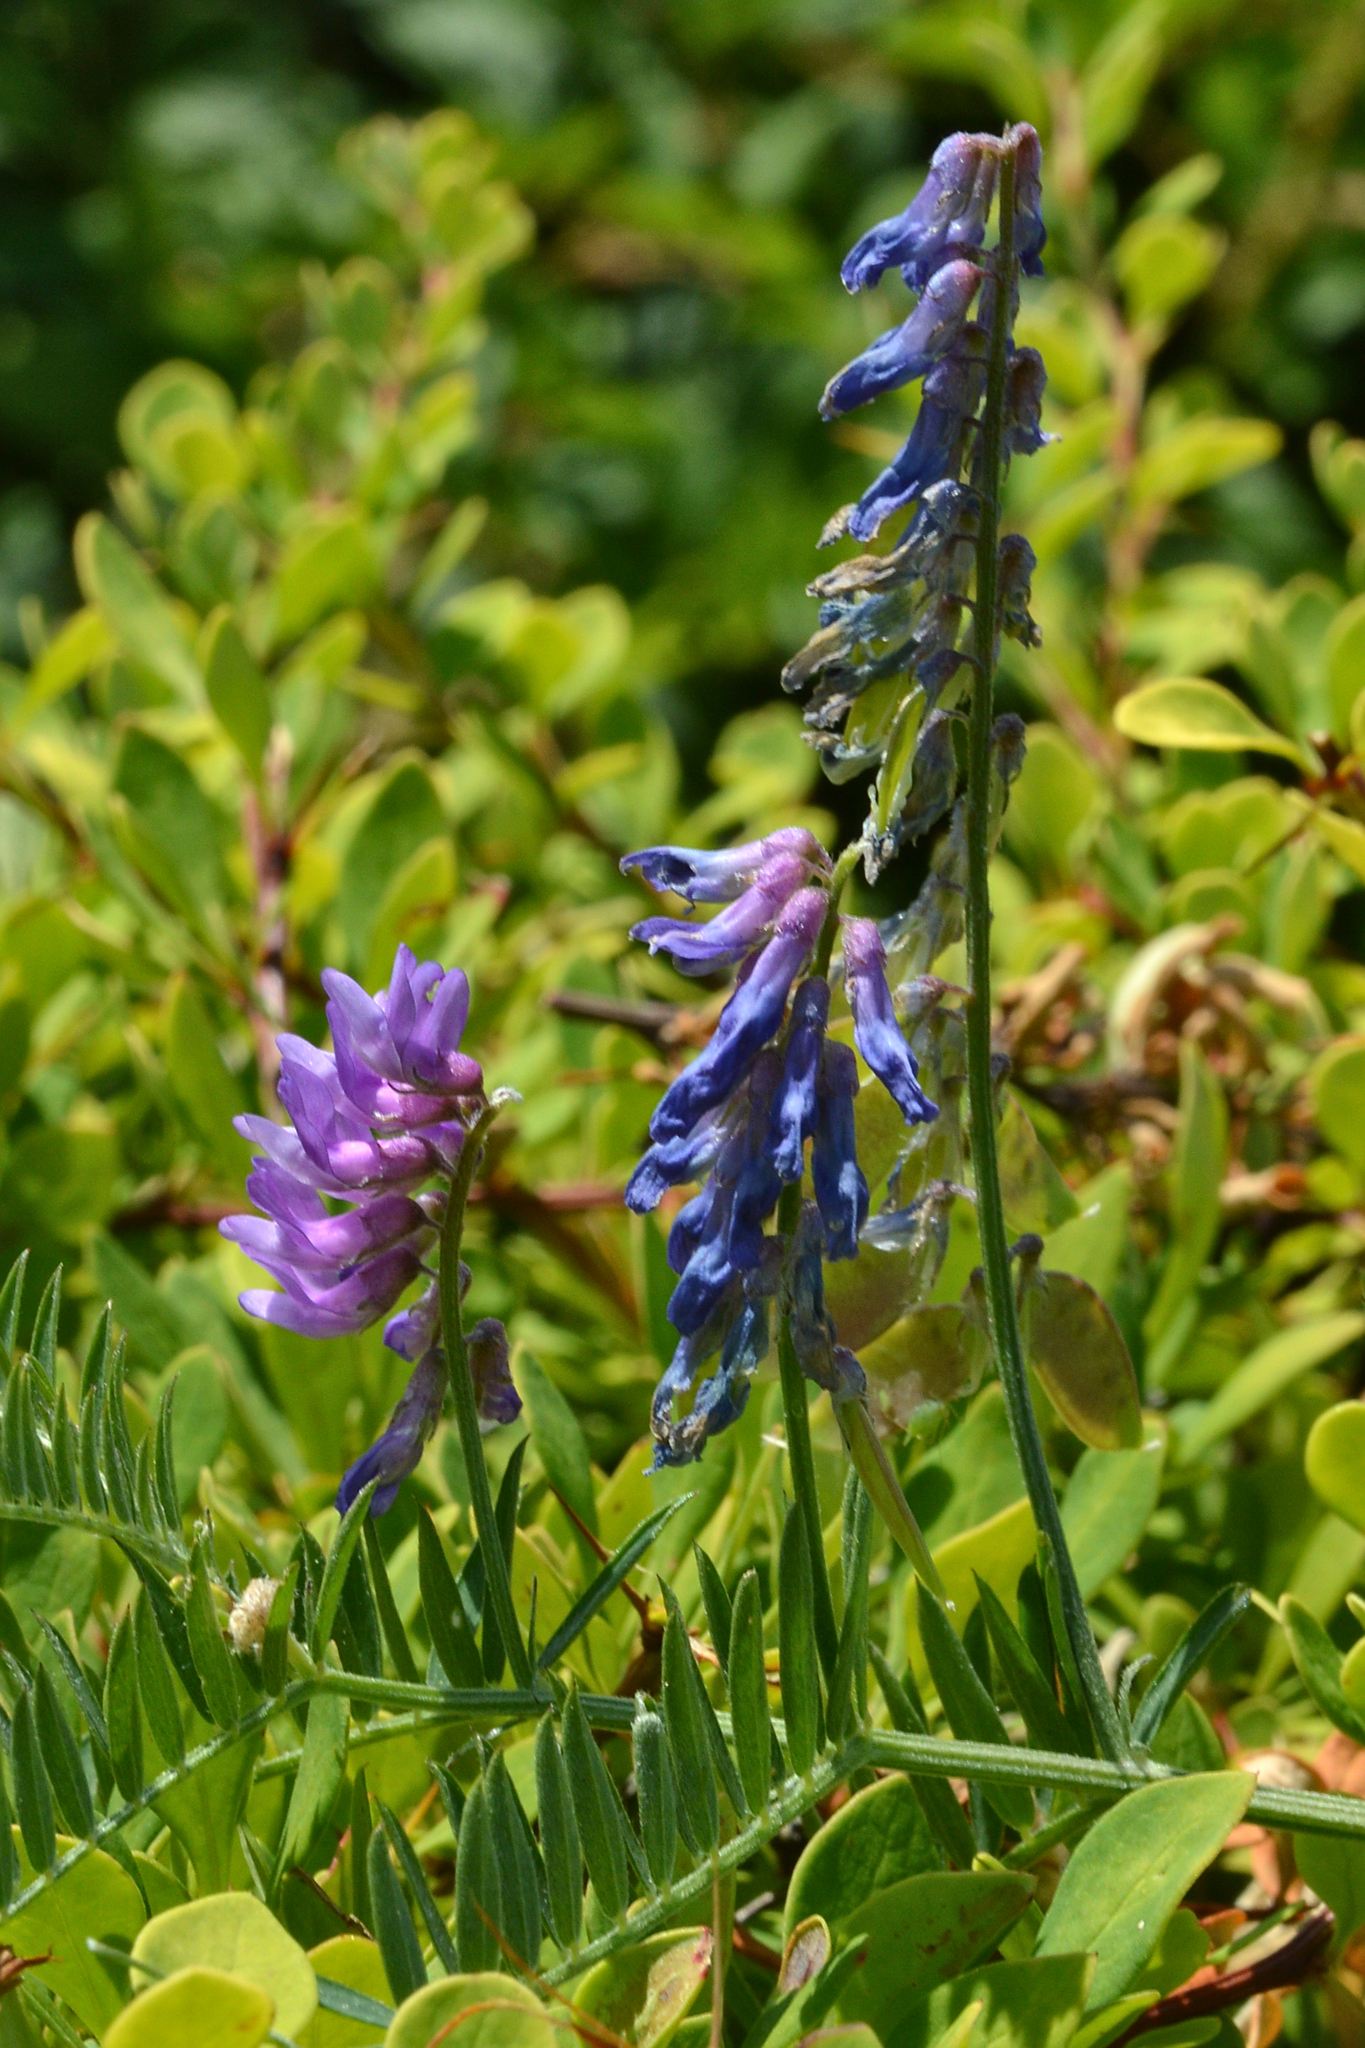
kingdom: Plantae
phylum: Tracheophyta
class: Magnoliopsida
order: Fabales
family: Fabaceae
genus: Vicia
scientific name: Vicia cracca
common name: Bird vetch
